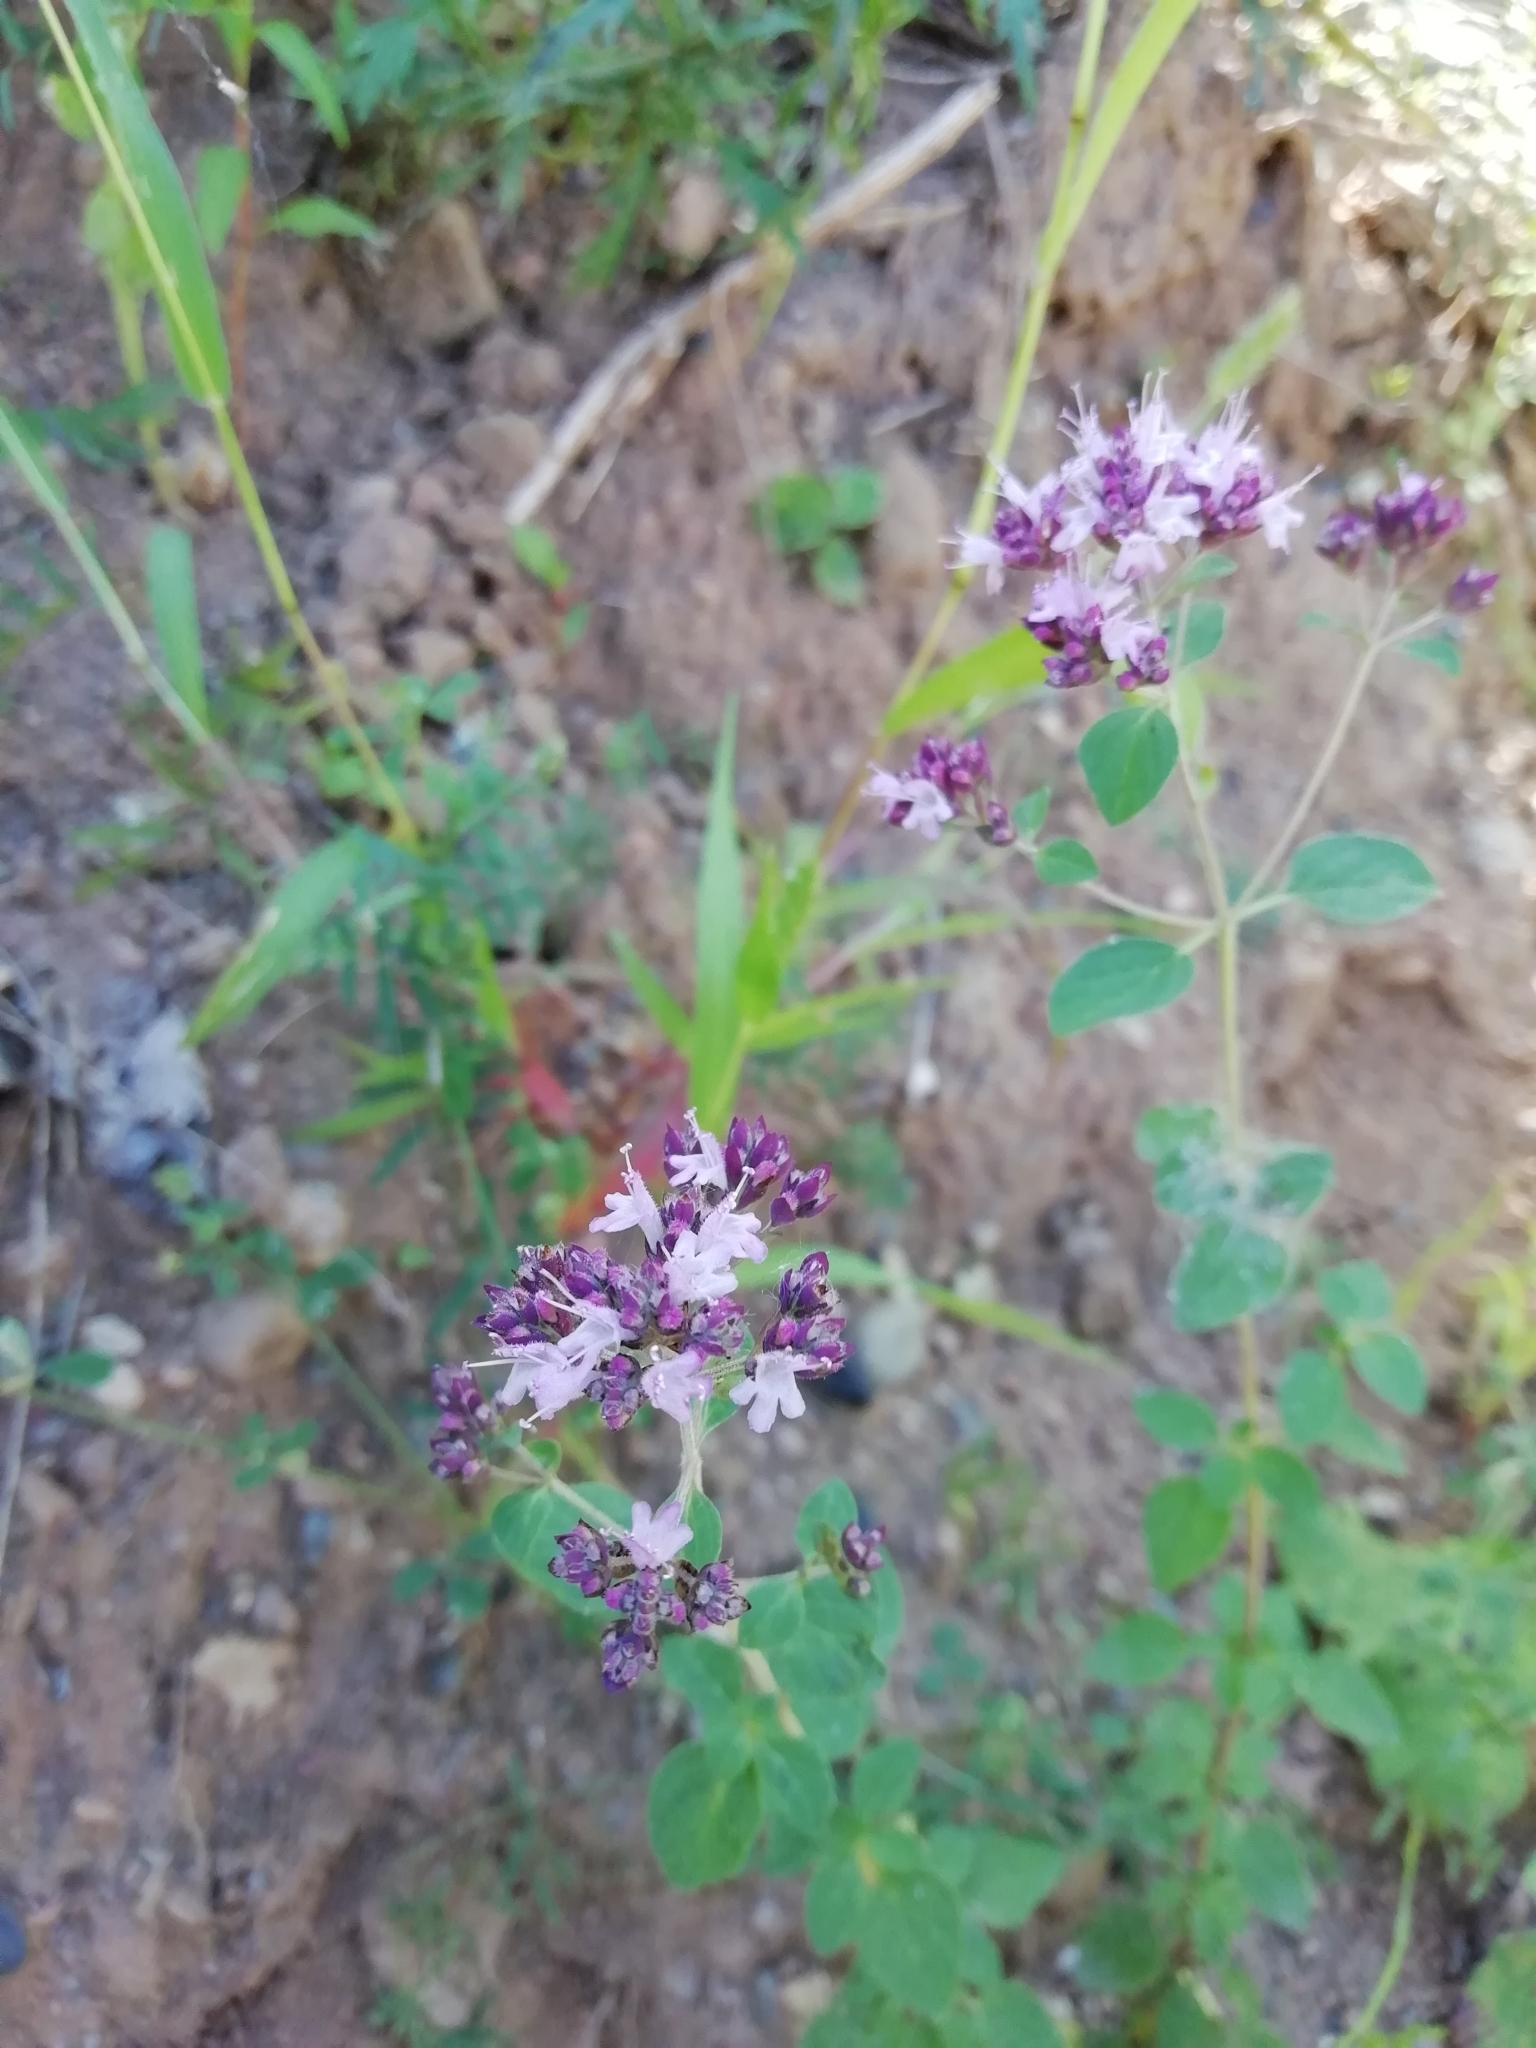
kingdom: Plantae
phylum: Tracheophyta
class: Magnoliopsida
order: Lamiales
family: Lamiaceae
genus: Origanum
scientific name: Origanum vulgare
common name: Wild marjoram
